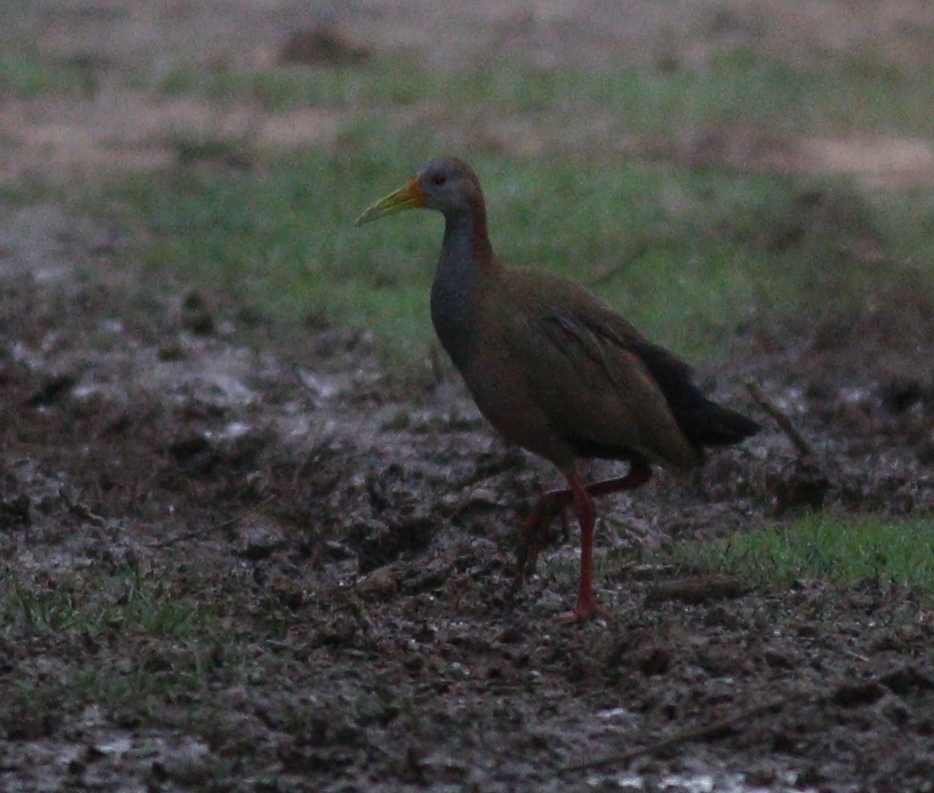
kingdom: Animalia
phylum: Chordata
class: Aves
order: Gruiformes
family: Rallidae
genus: Aramides
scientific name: Aramides ypecaha
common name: Giant wood rail
